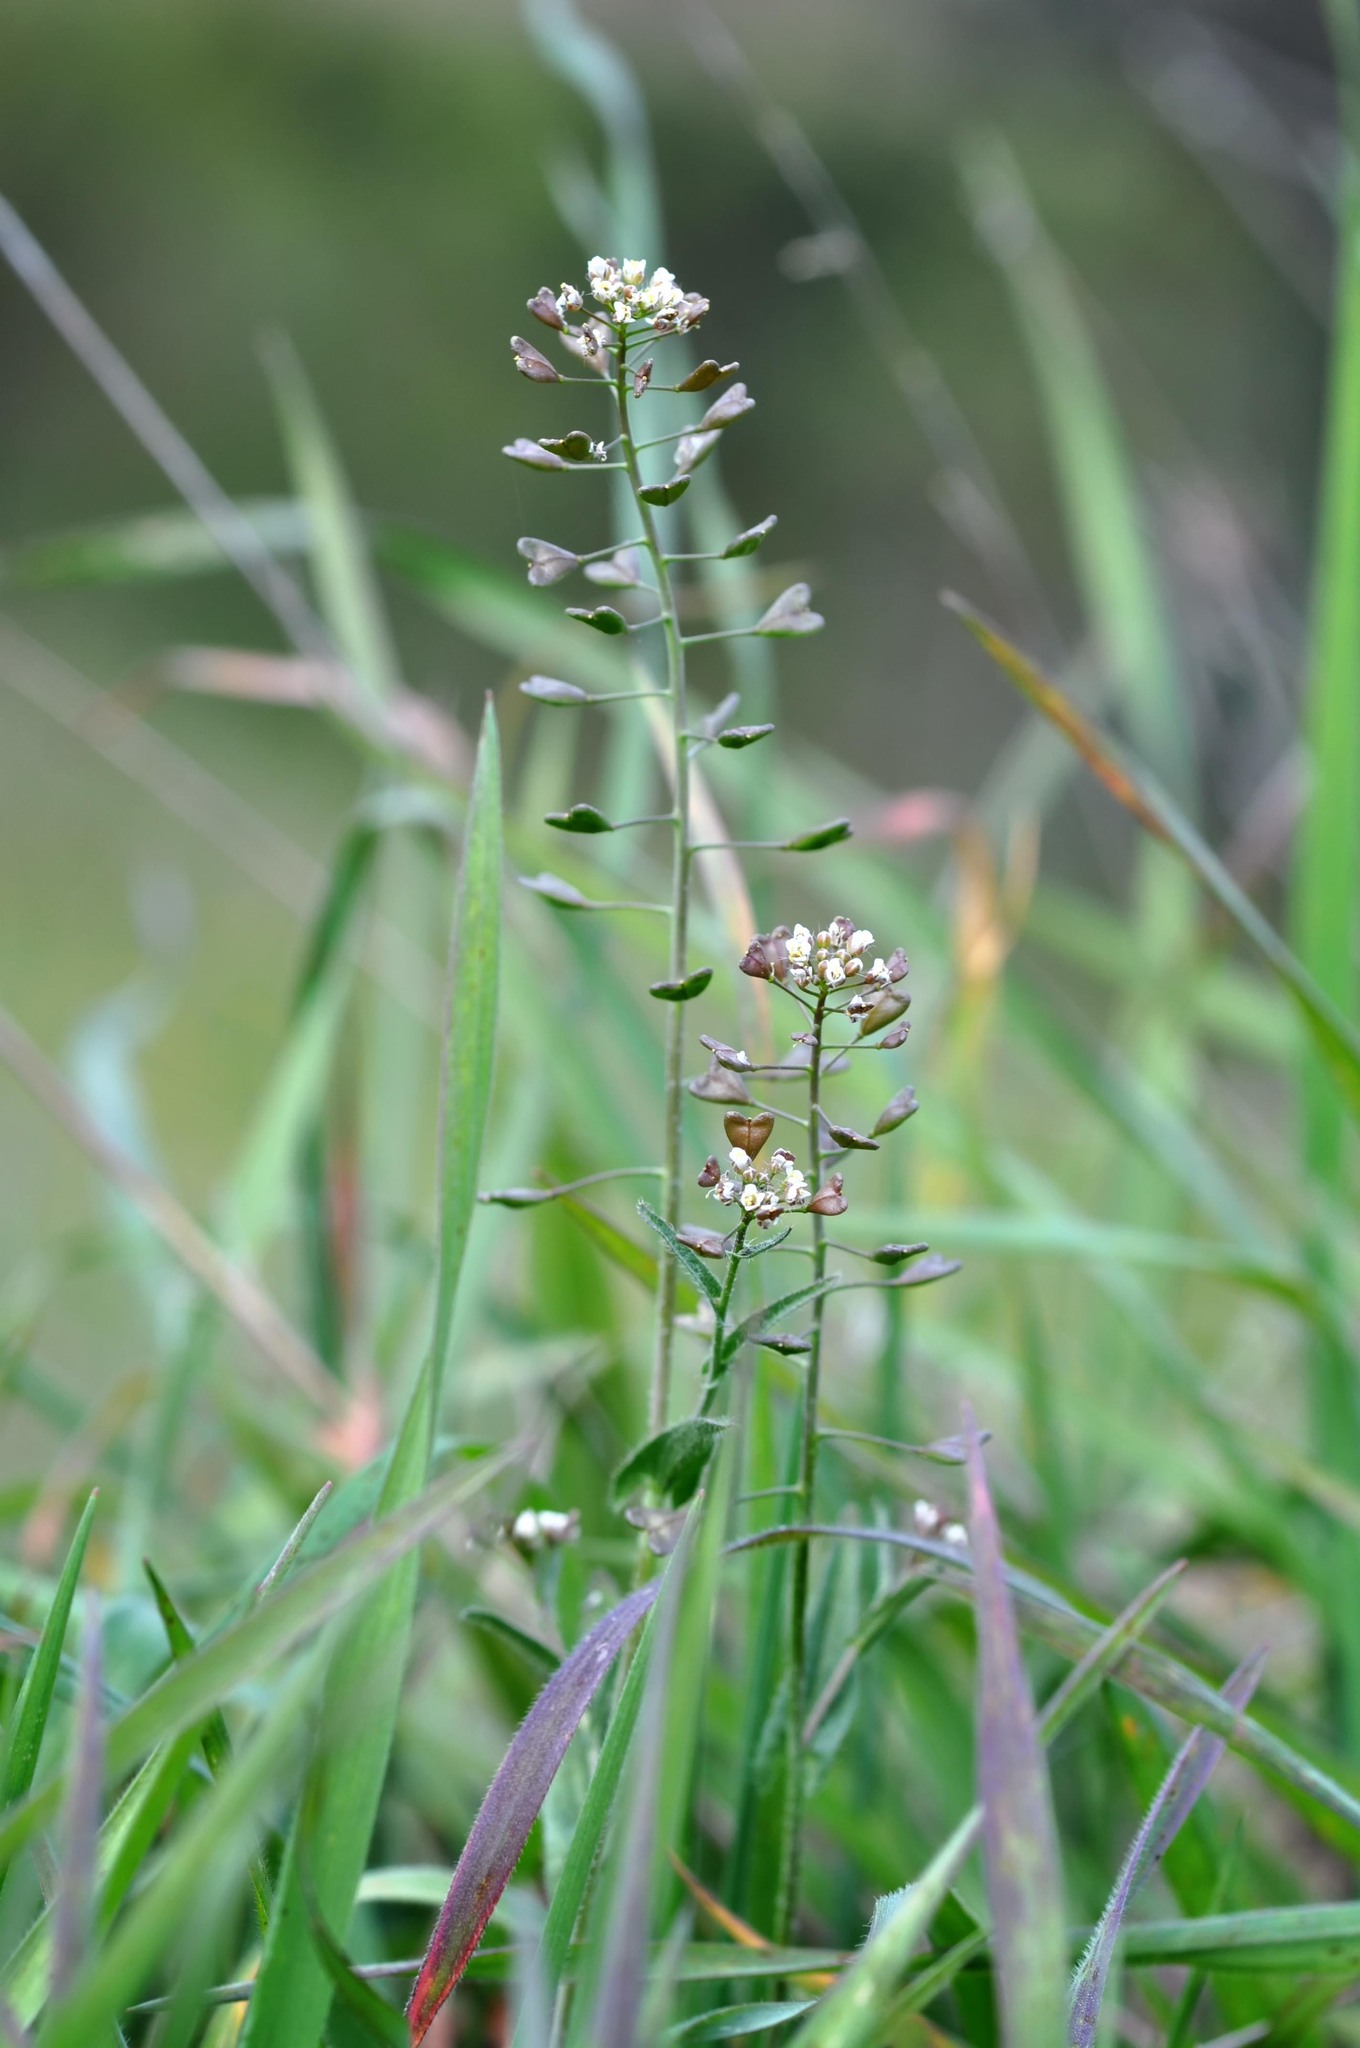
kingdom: Plantae
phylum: Tracheophyta
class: Magnoliopsida
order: Brassicales
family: Brassicaceae
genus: Capsella
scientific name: Capsella bursa-pastoris
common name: Shepherd's purse
